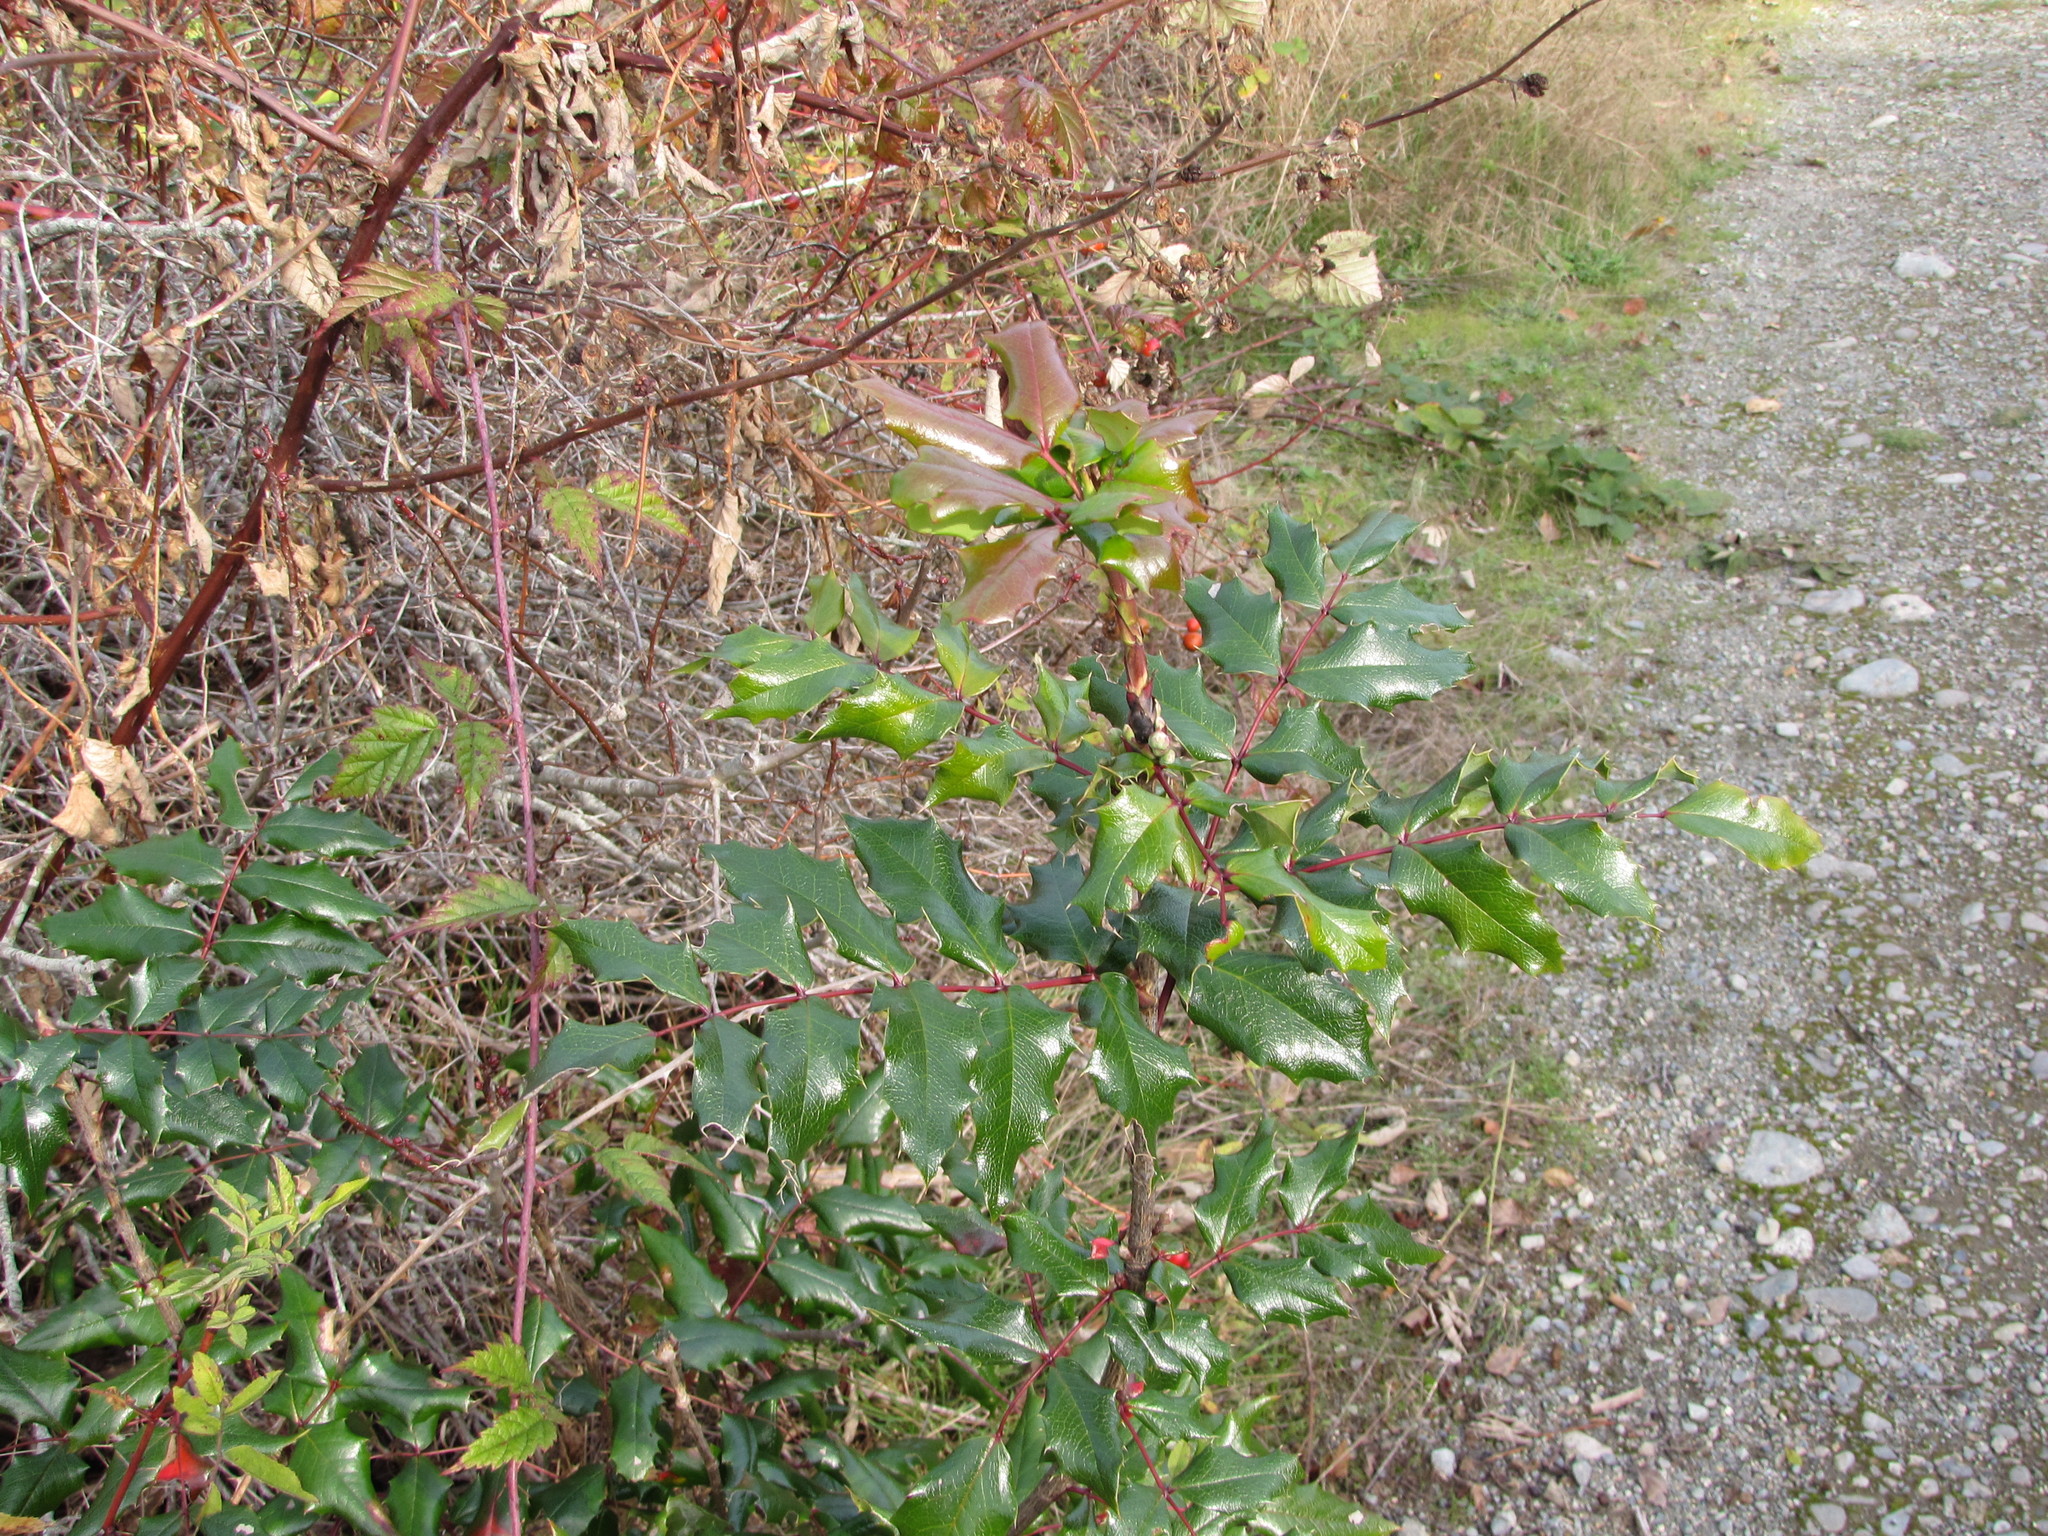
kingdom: Plantae
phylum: Tracheophyta
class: Magnoliopsida
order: Ranunculales
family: Berberidaceae
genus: Mahonia
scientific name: Mahonia aquifolium
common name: Oregon-grape
